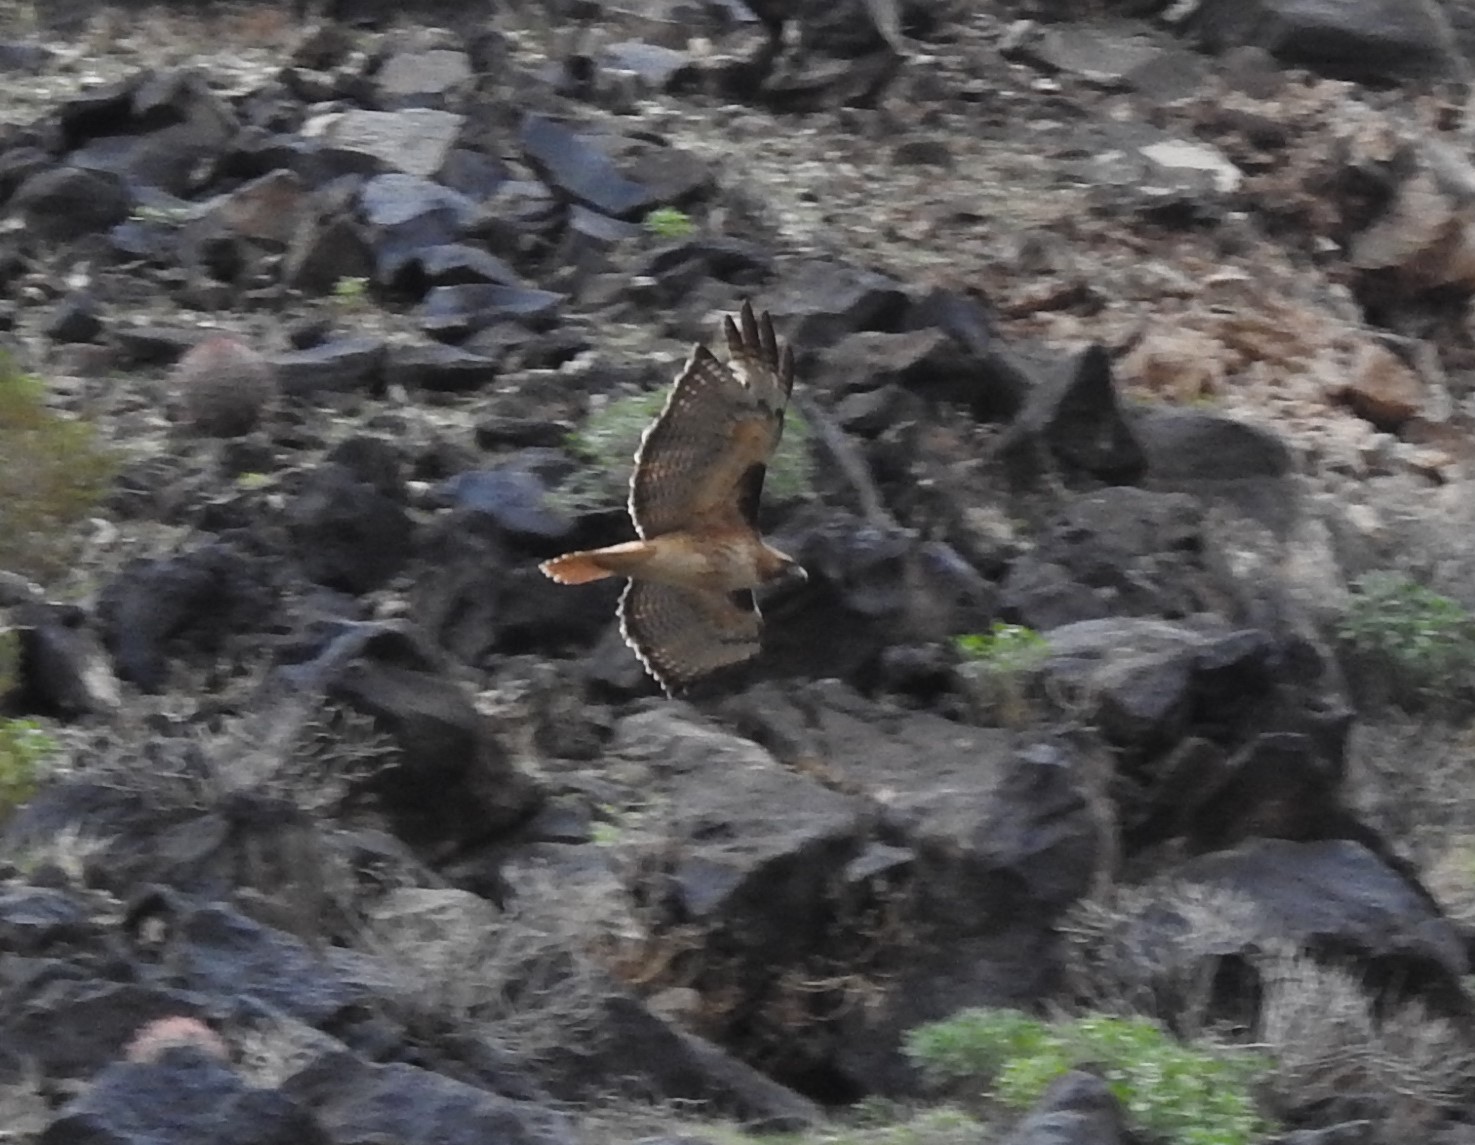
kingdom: Animalia
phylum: Chordata
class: Aves
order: Accipitriformes
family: Accipitridae
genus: Buteo
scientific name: Buteo jamaicensis
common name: Red-tailed hawk
